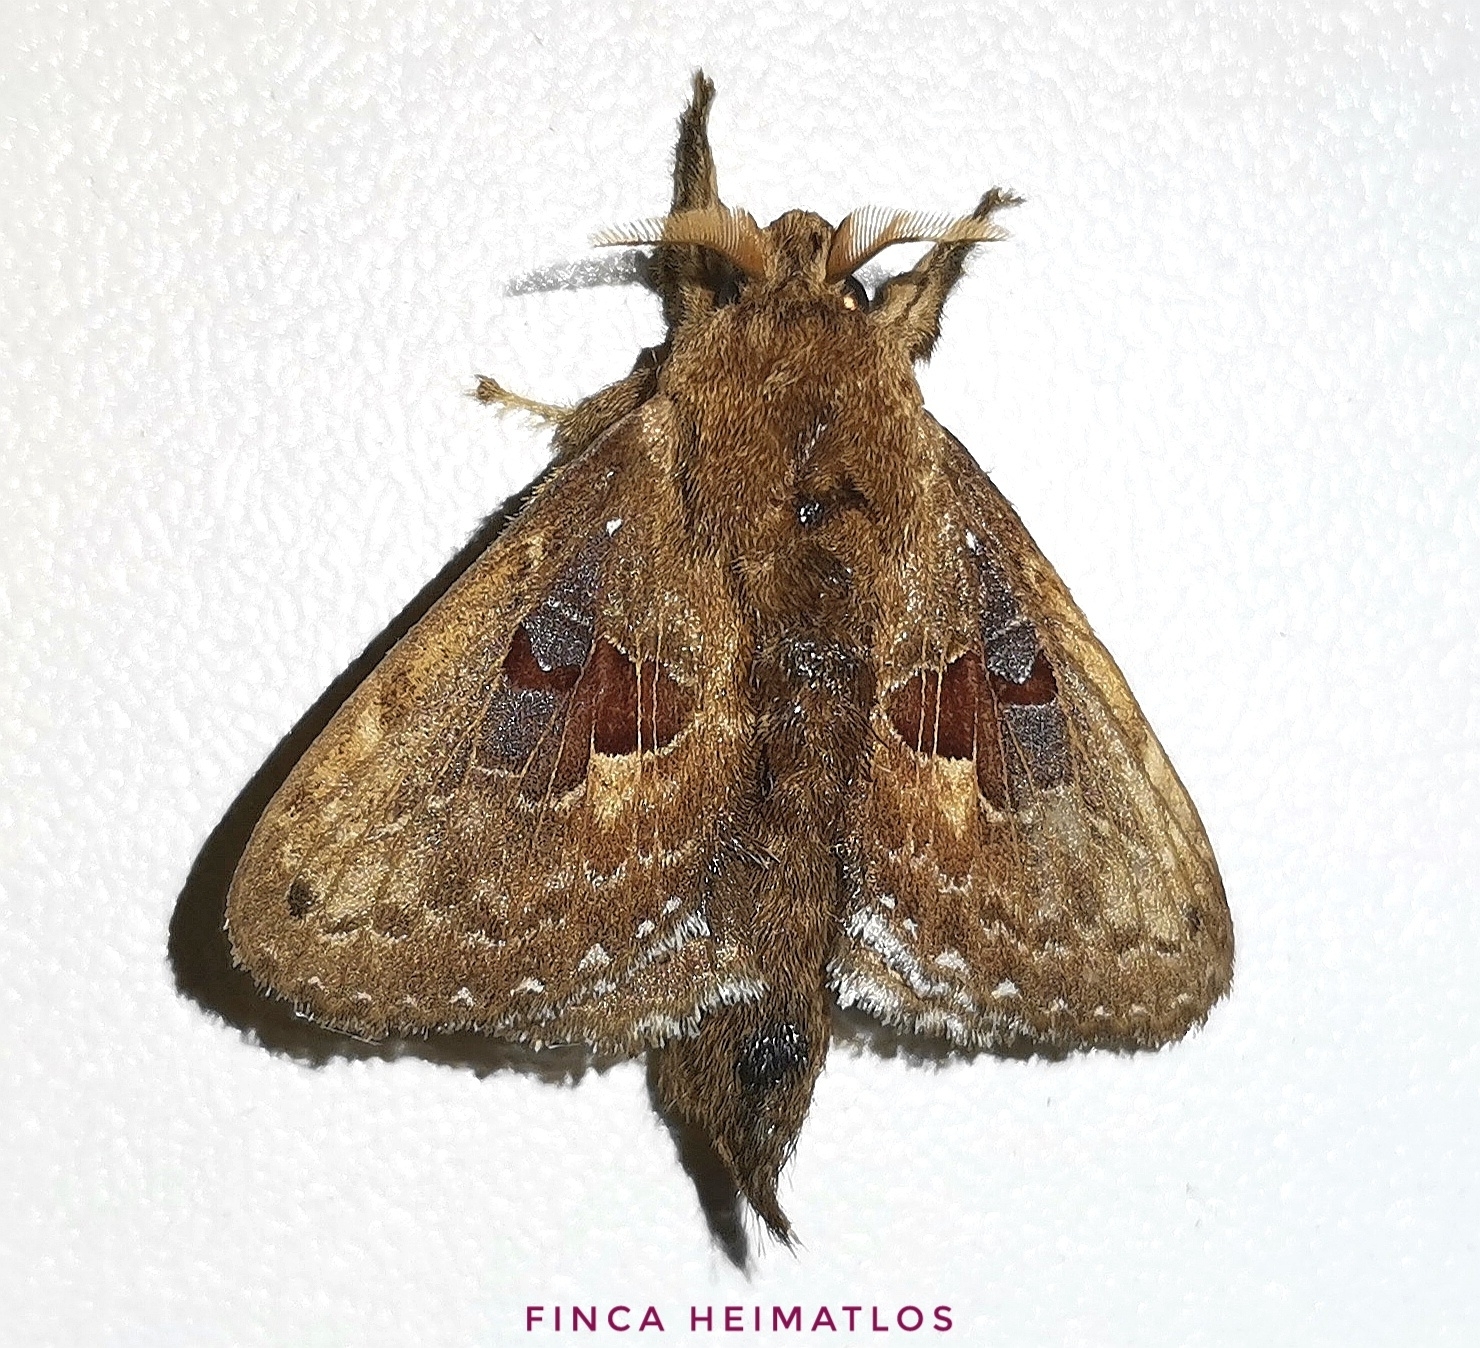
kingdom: Animalia
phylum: Arthropoda
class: Insecta
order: Lepidoptera
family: Lasiocampidae
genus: Labedera
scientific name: Labedera fuscicaudata
